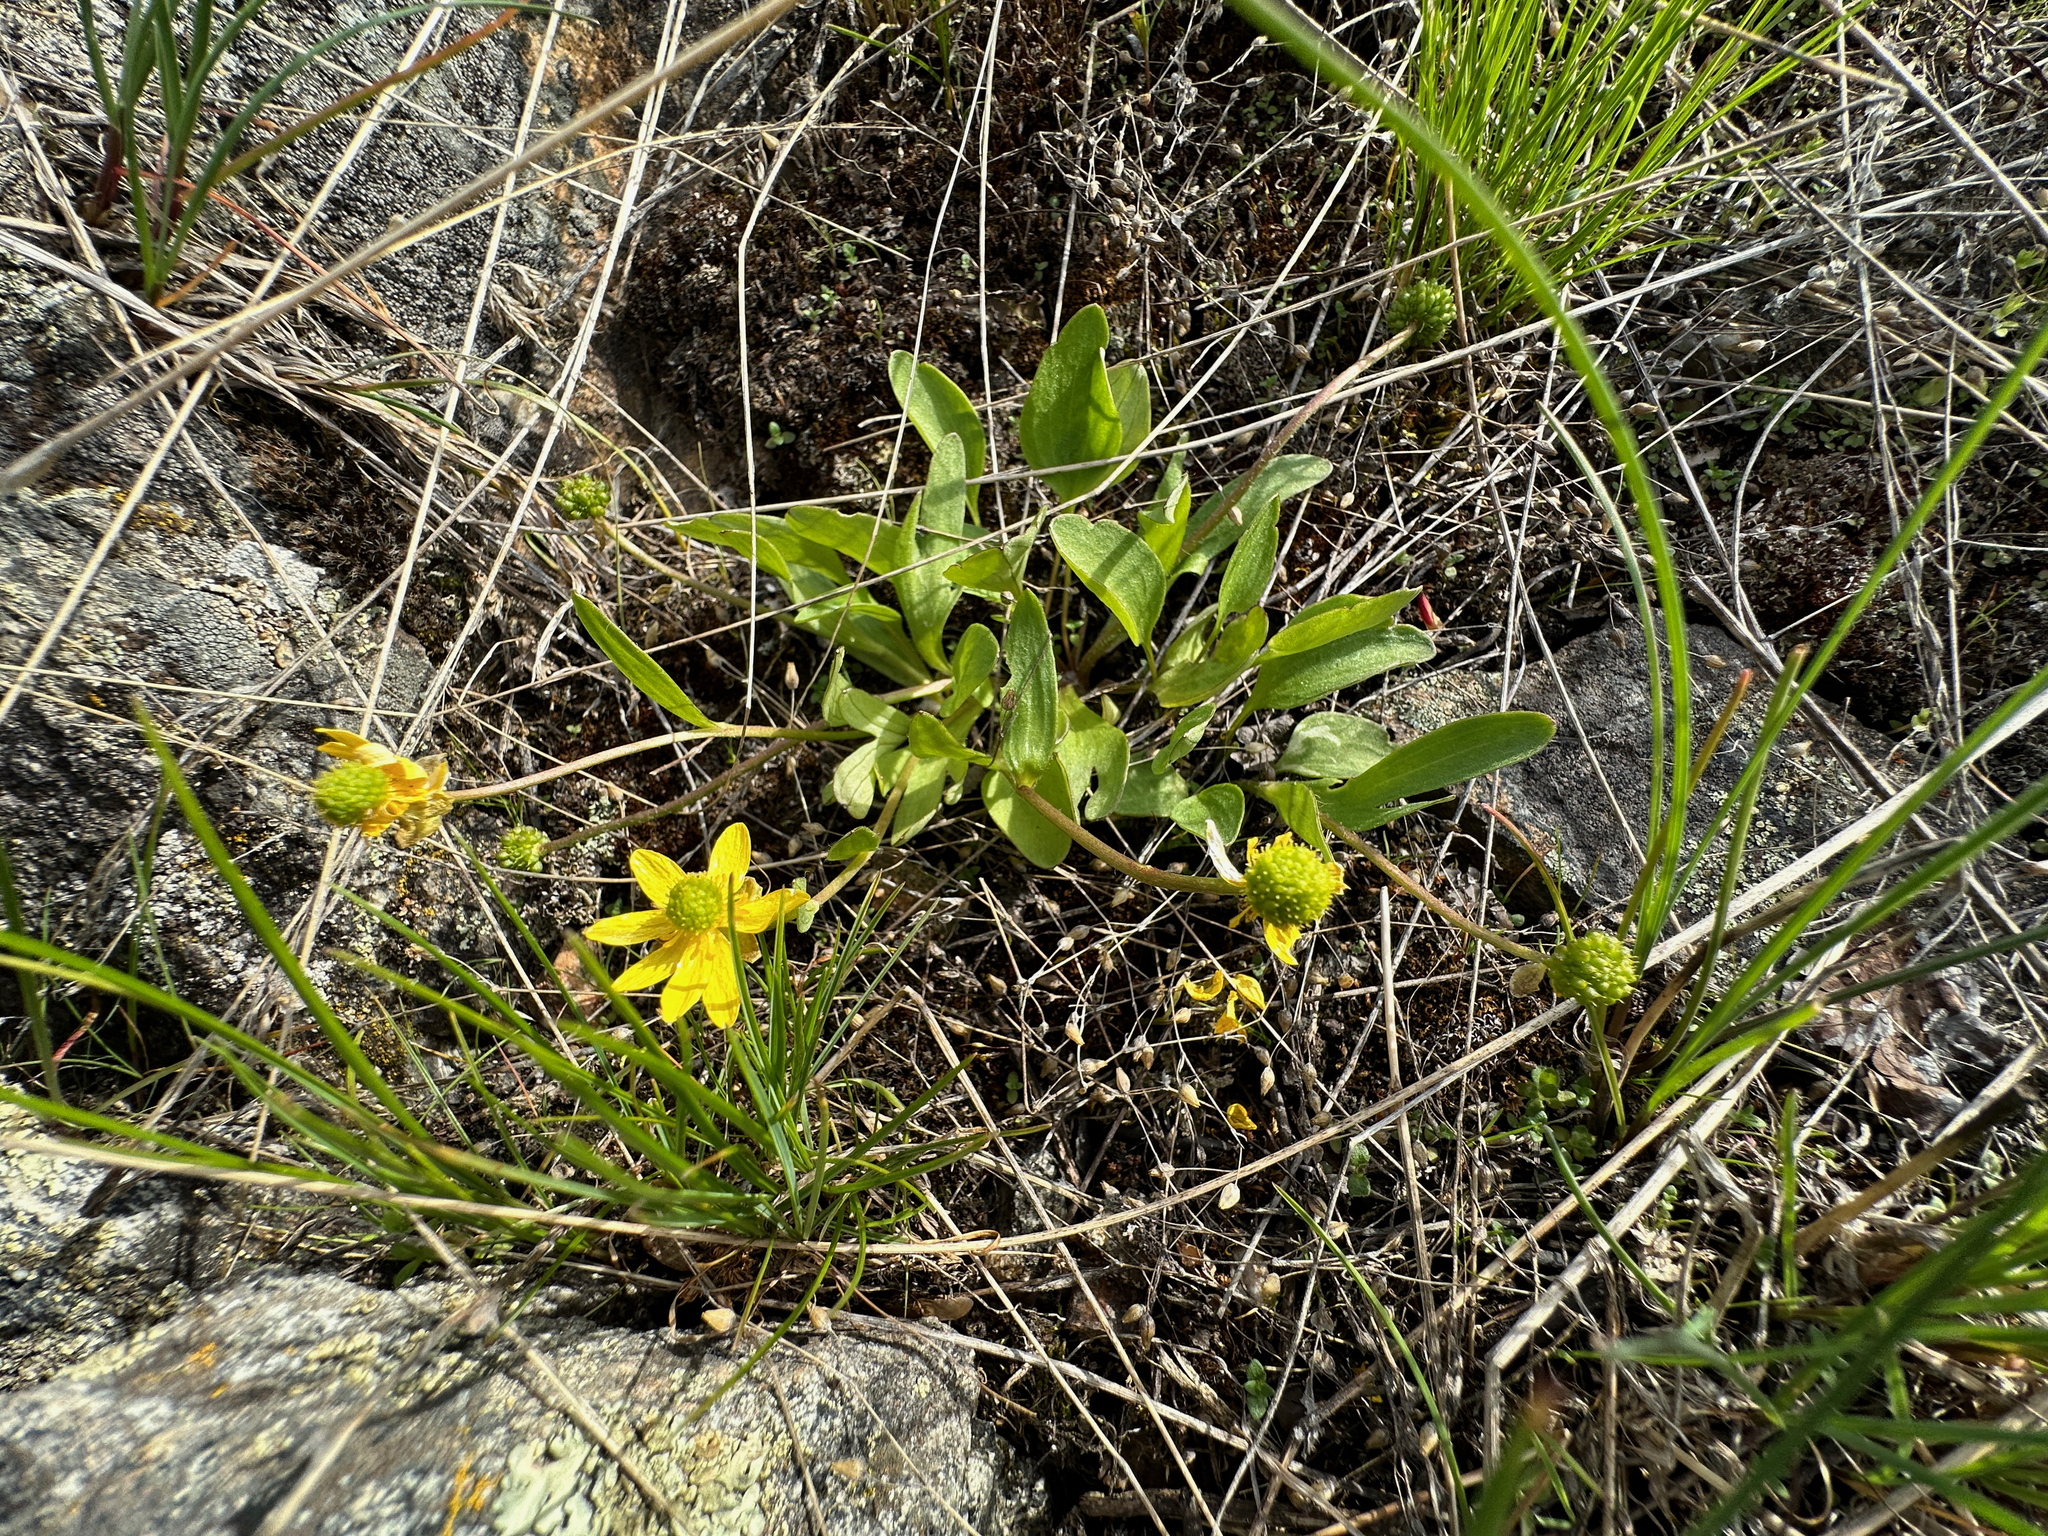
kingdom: Plantae
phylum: Tracheophyta
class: Magnoliopsida
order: Ranunculales
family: Ranunculaceae
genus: Ranunculus
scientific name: Ranunculus glaberrimus
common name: Sagebrush buttercup
